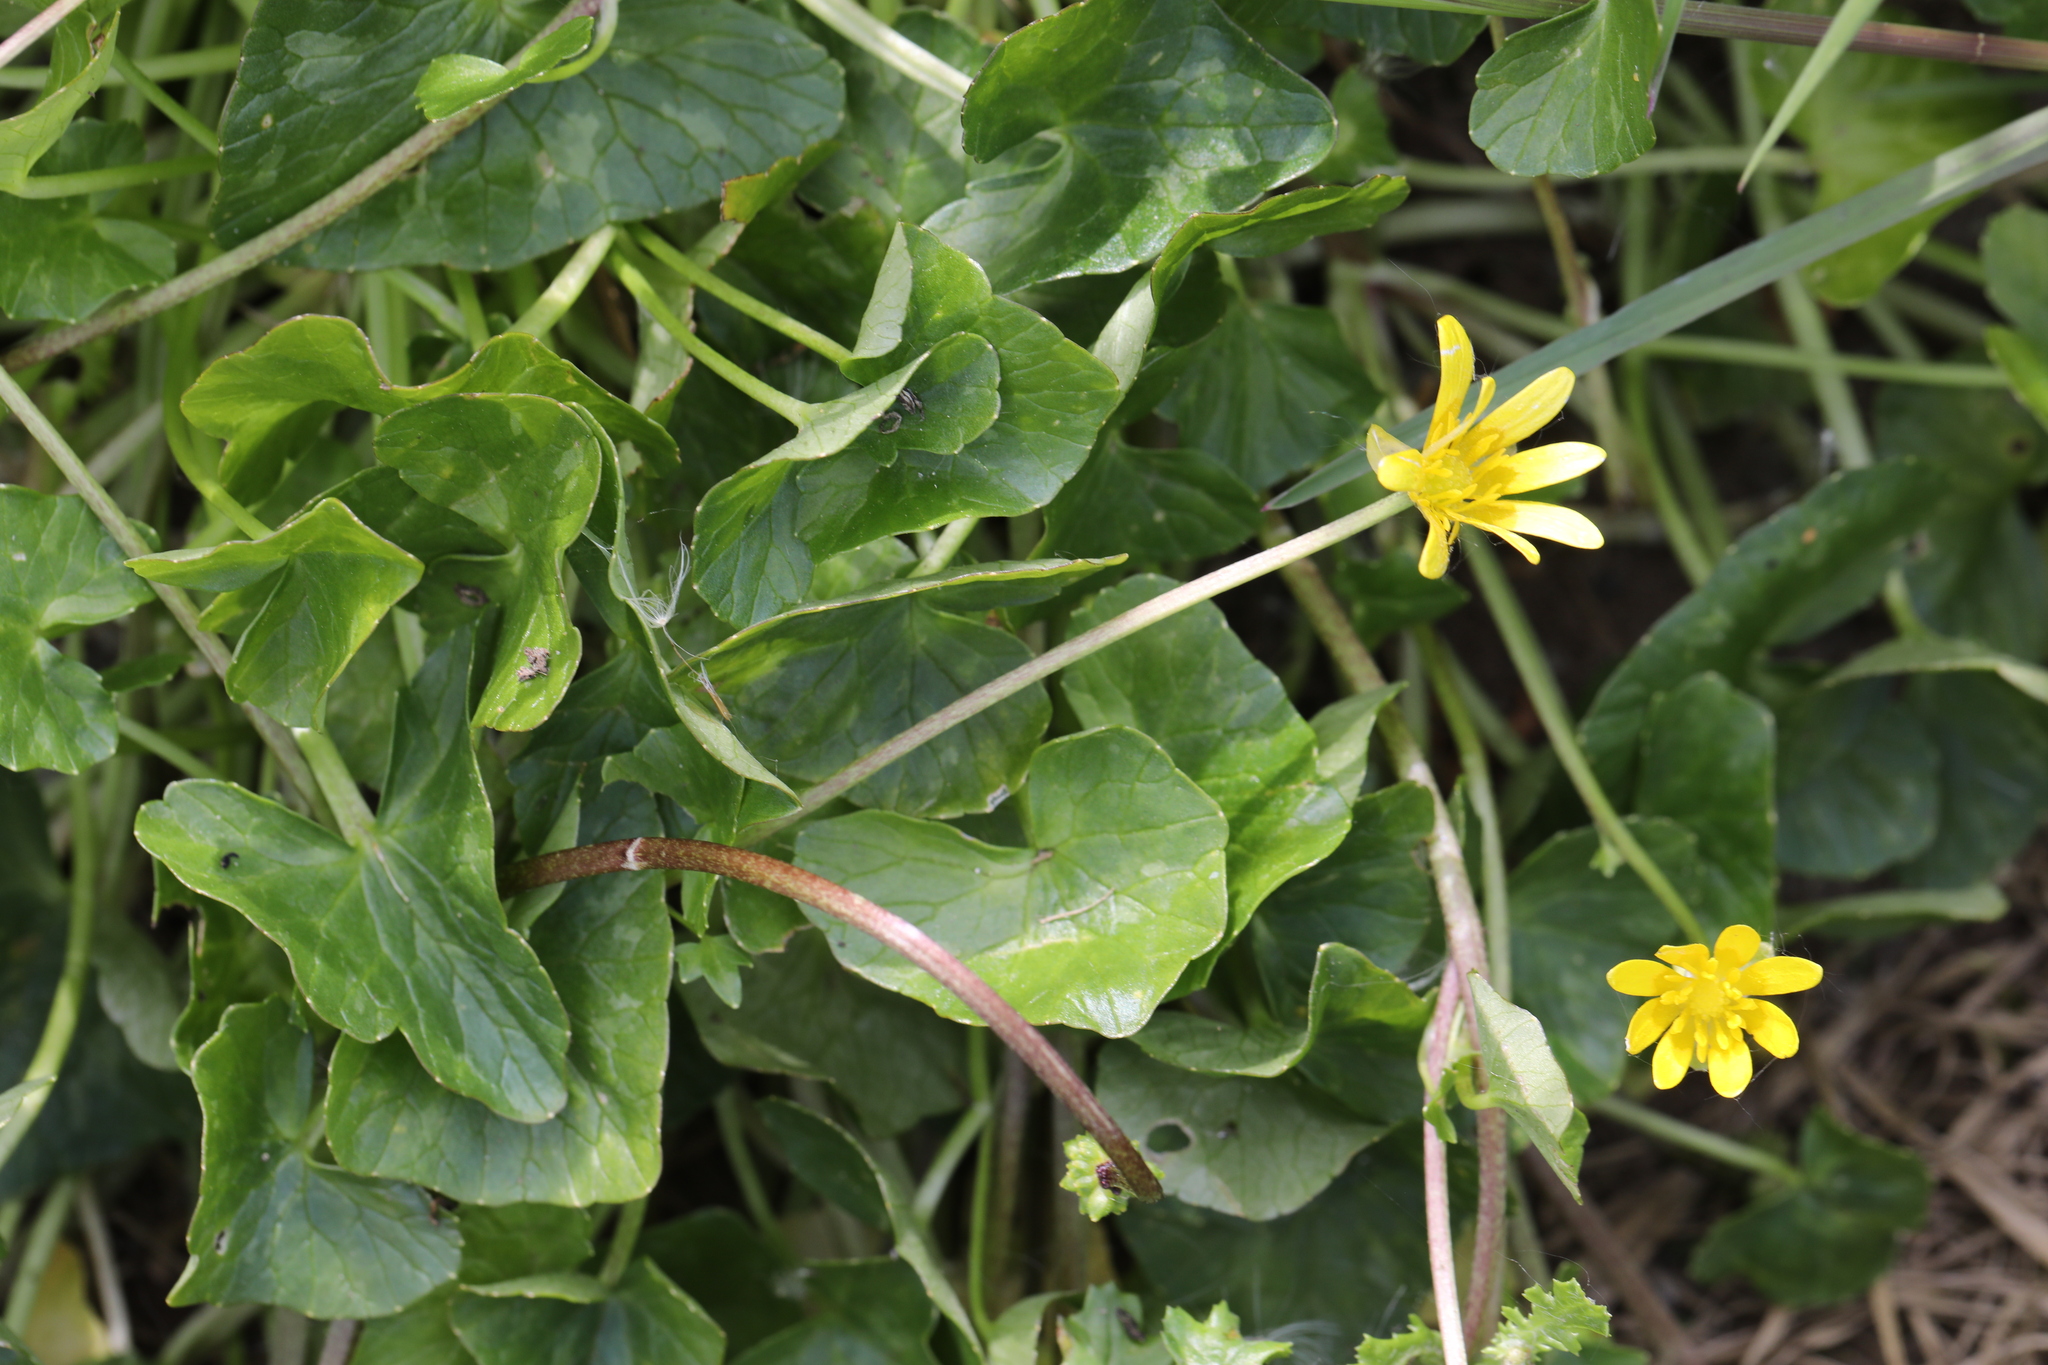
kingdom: Plantae
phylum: Tracheophyta
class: Magnoliopsida
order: Ranunculales
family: Ranunculaceae
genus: Ficaria
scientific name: Ficaria verna
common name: Lesser celandine
